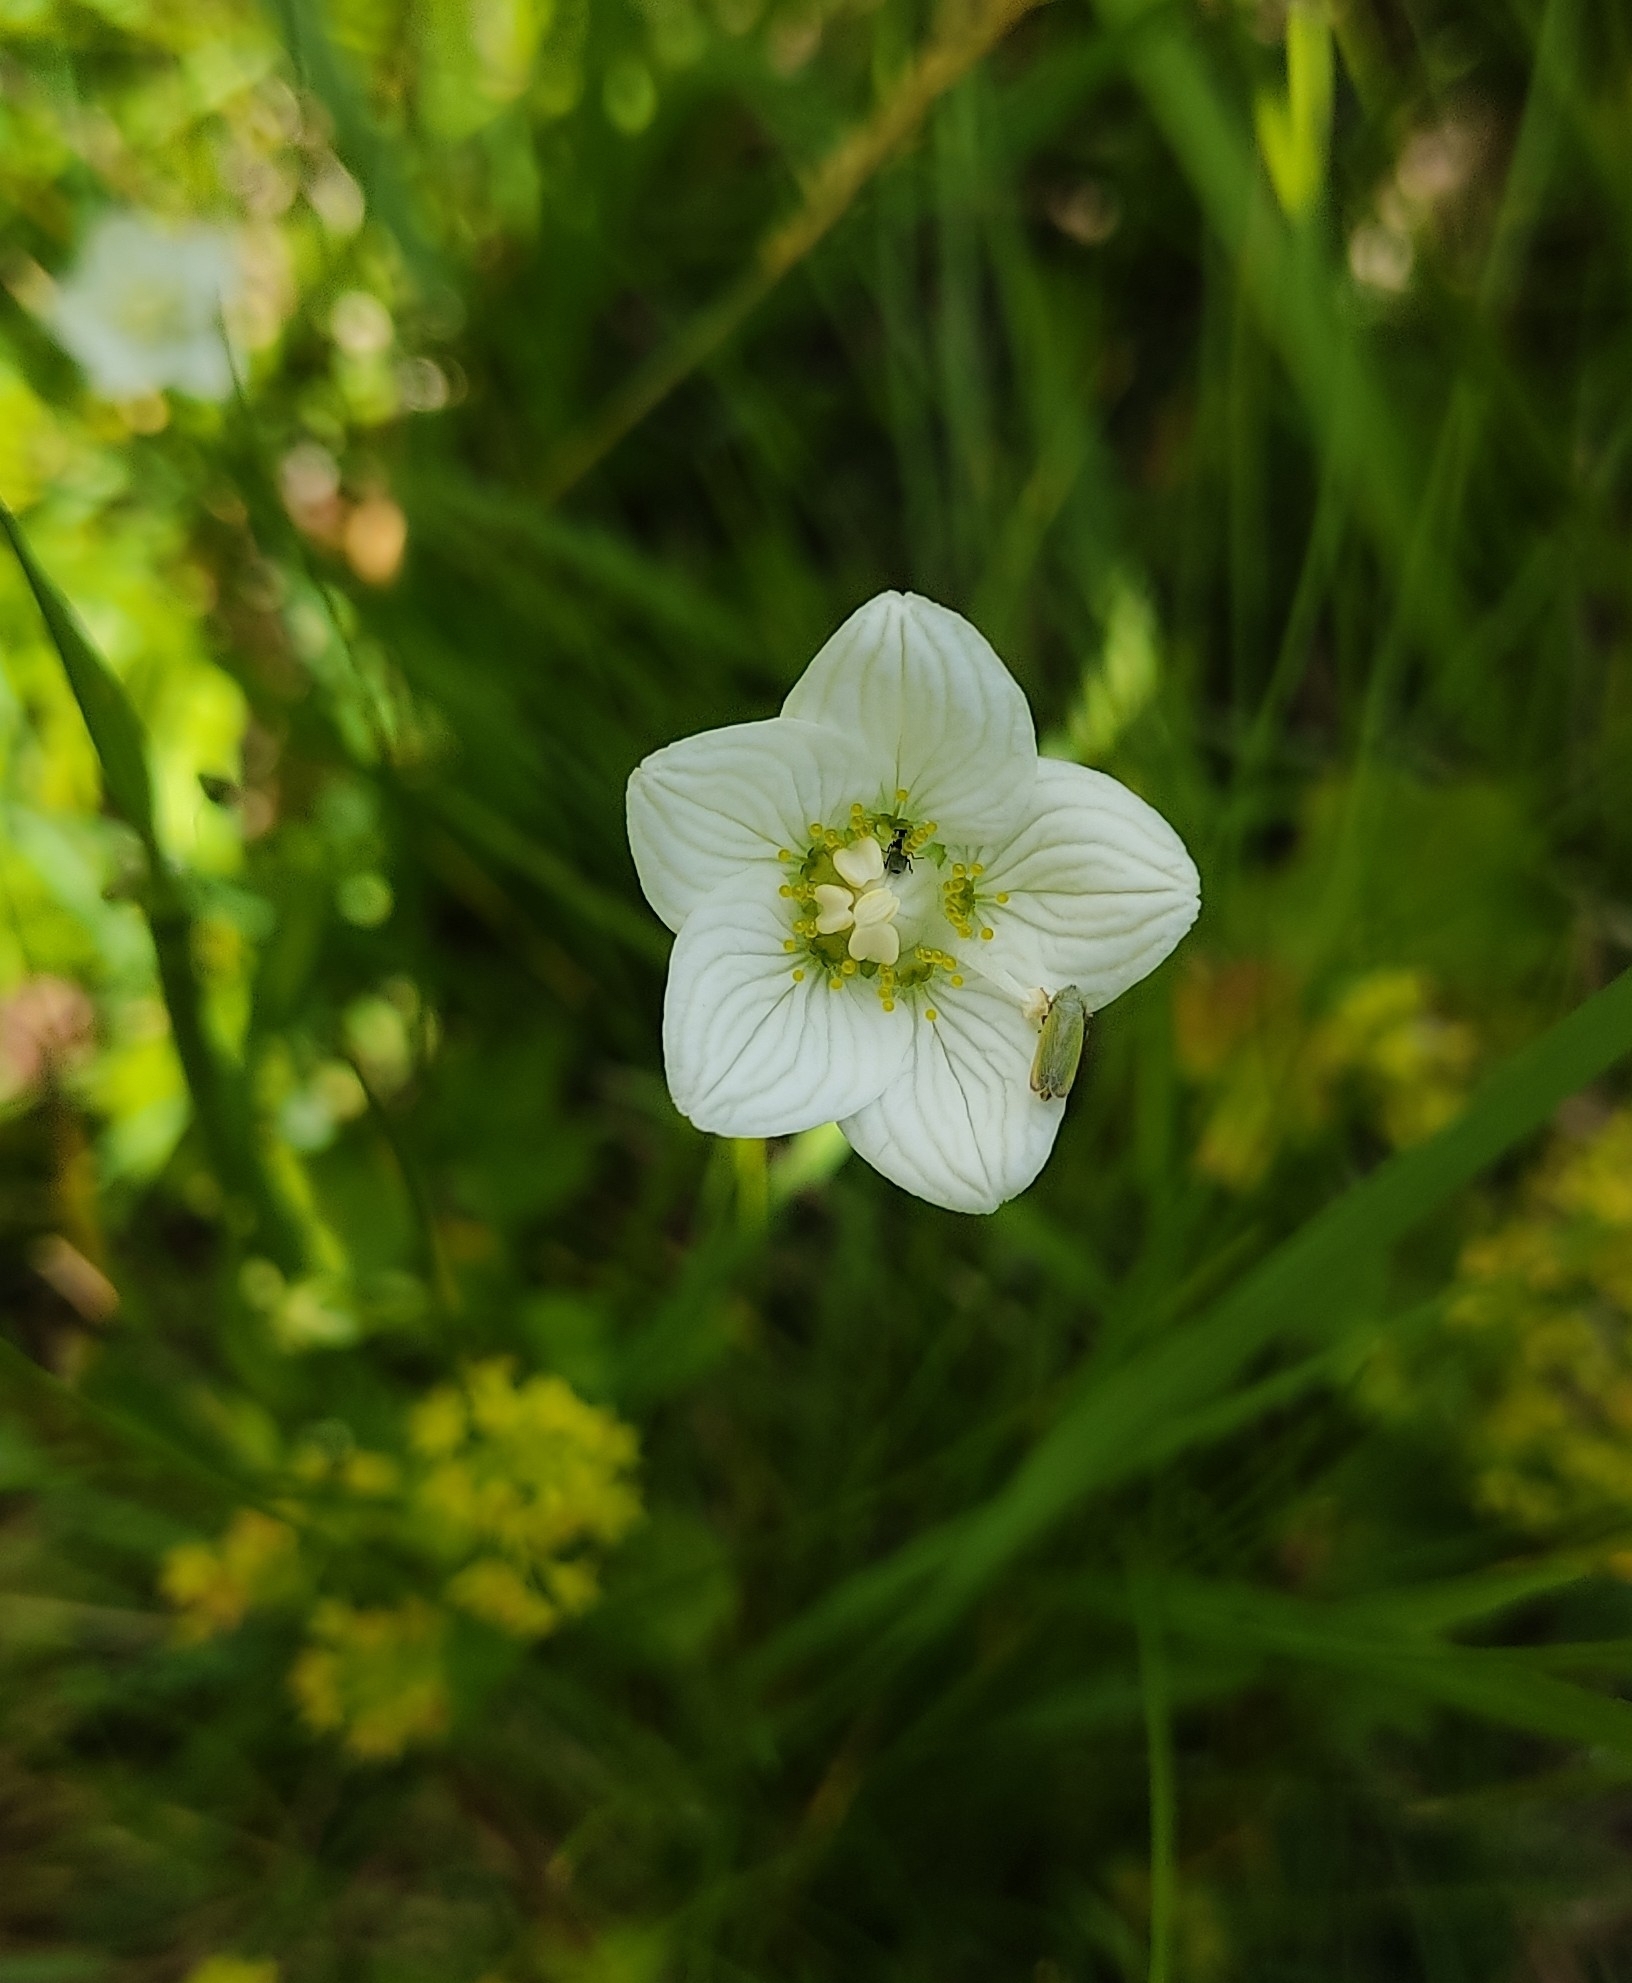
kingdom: Plantae
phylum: Tracheophyta
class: Magnoliopsida
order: Celastrales
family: Parnassiaceae
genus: Parnassia
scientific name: Parnassia palustris
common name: Grass-of-parnassus
